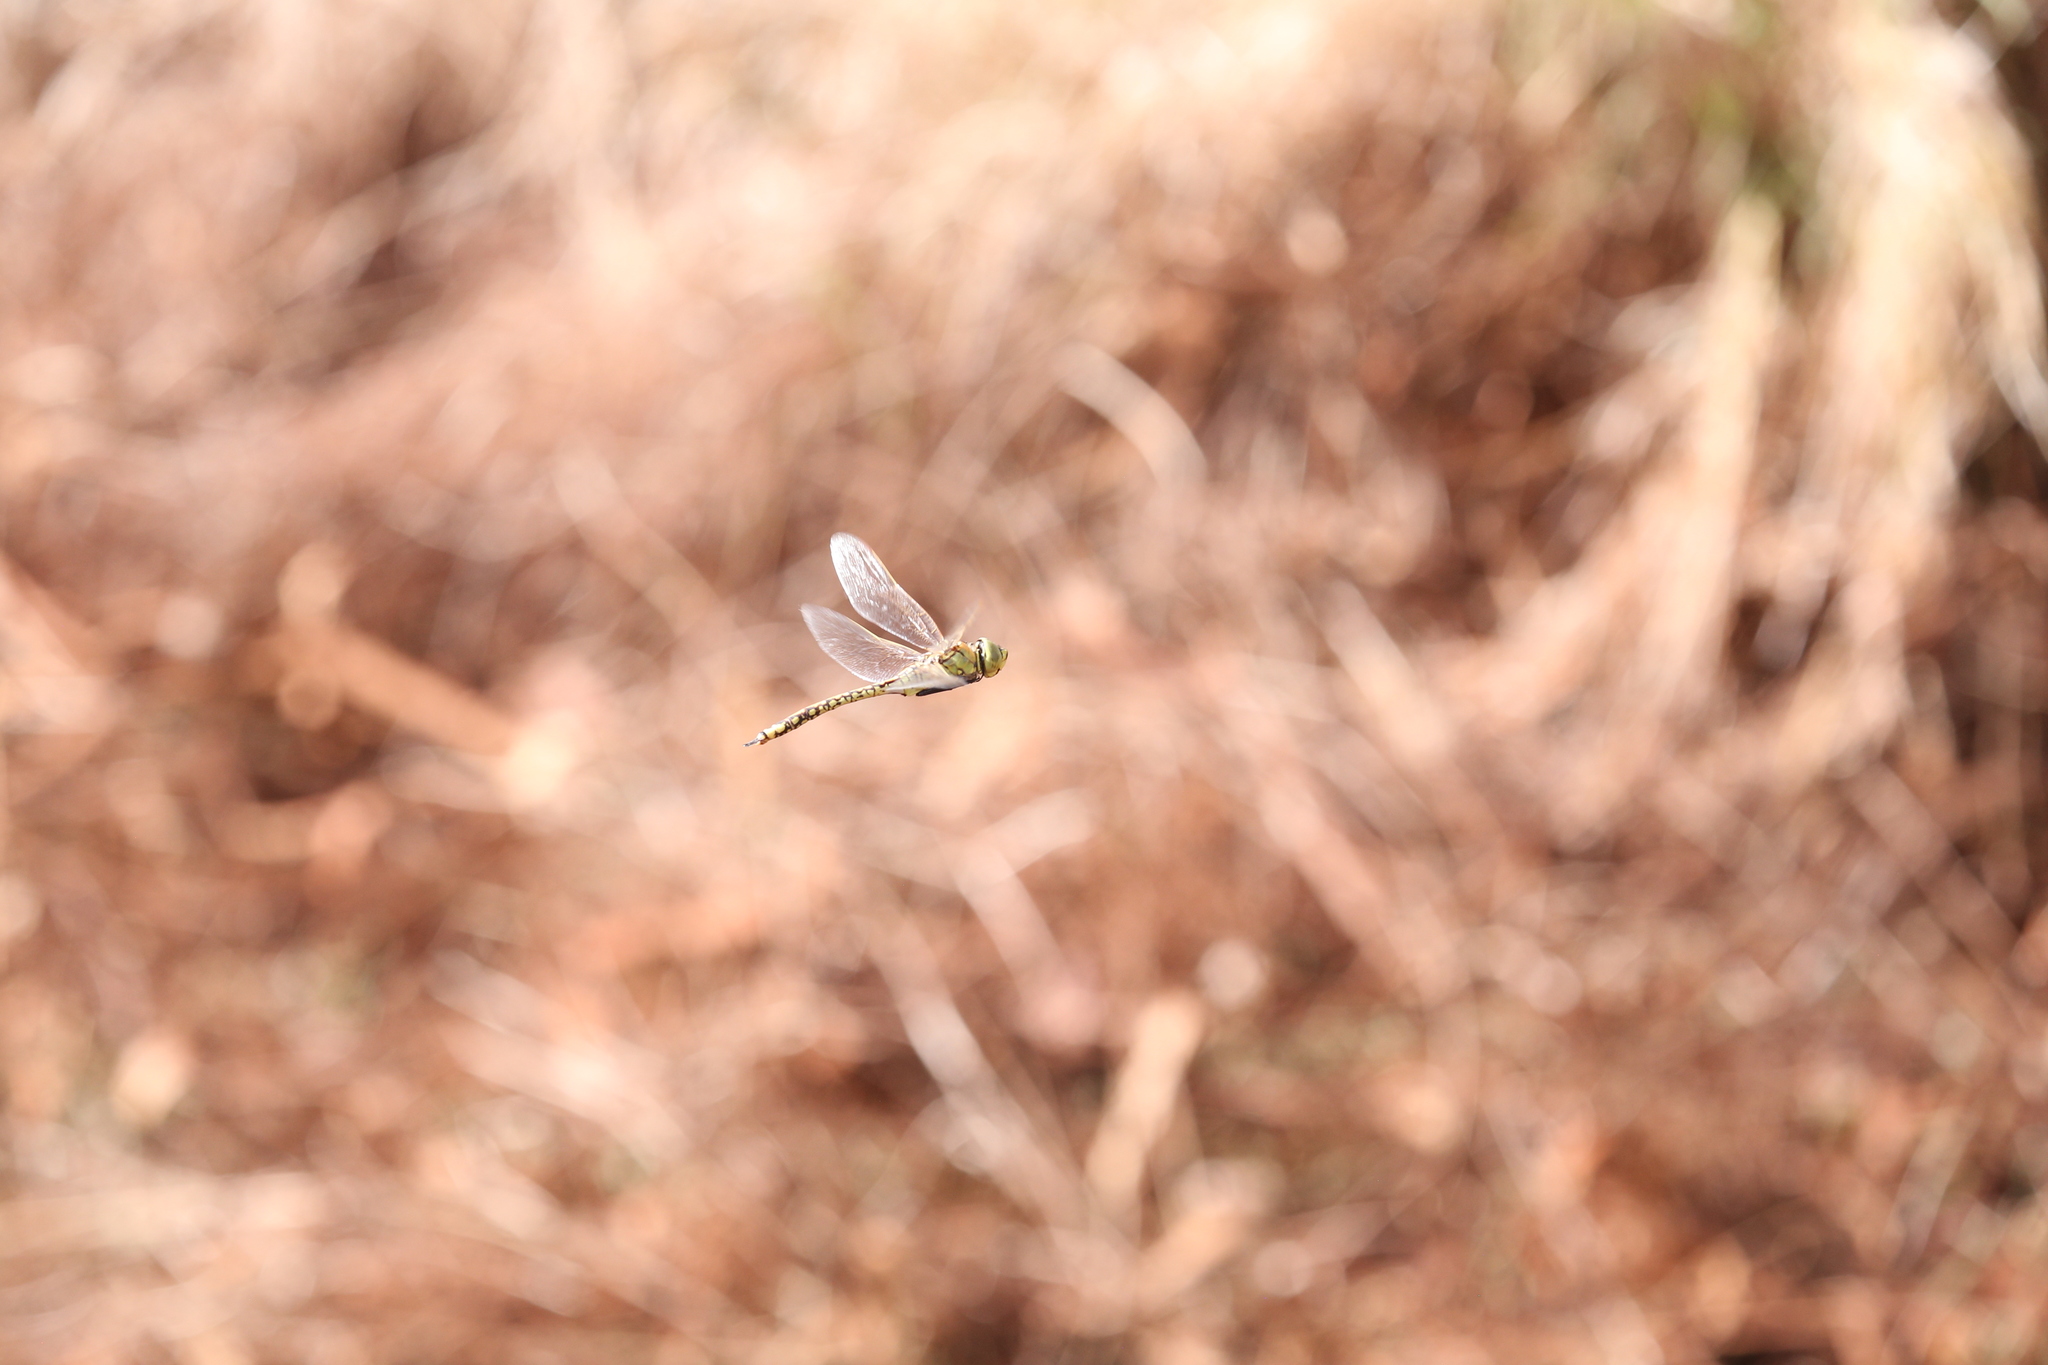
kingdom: Animalia
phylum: Arthropoda
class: Insecta
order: Odonata
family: Aeshnidae
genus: Anax
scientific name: Anax papuensis
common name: Australian emperor
